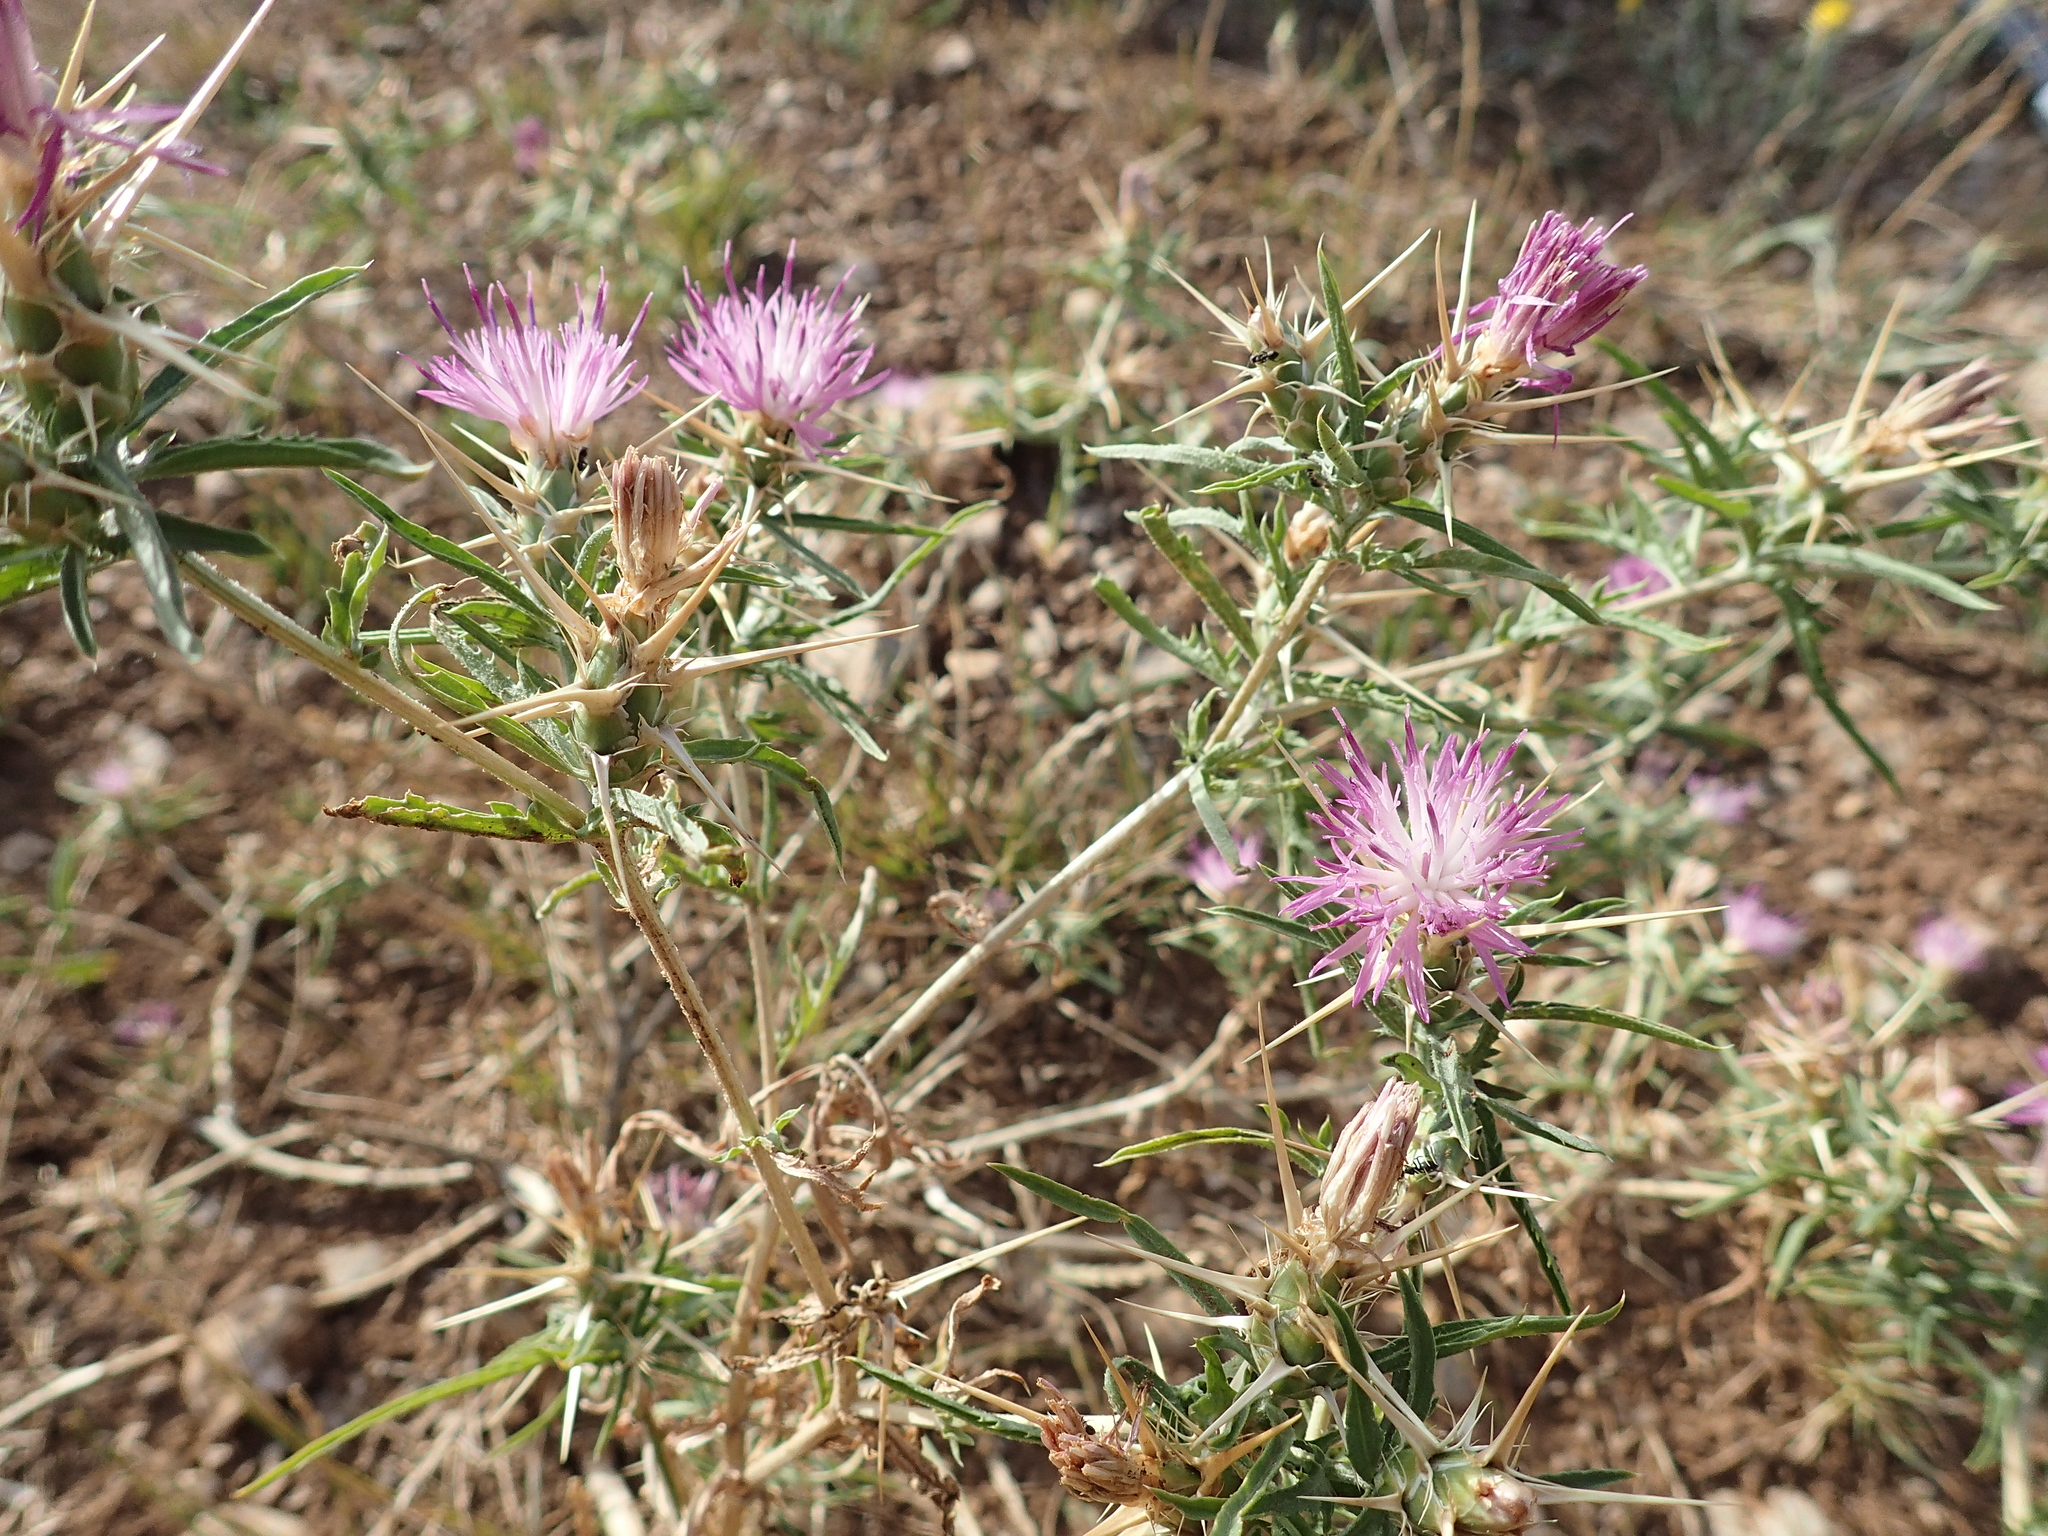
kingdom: Plantae
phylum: Tracheophyta
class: Magnoliopsida
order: Asterales
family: Asteraceae
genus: Centaurea
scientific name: Centaurea calcitrapa
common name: Red star-thistle
